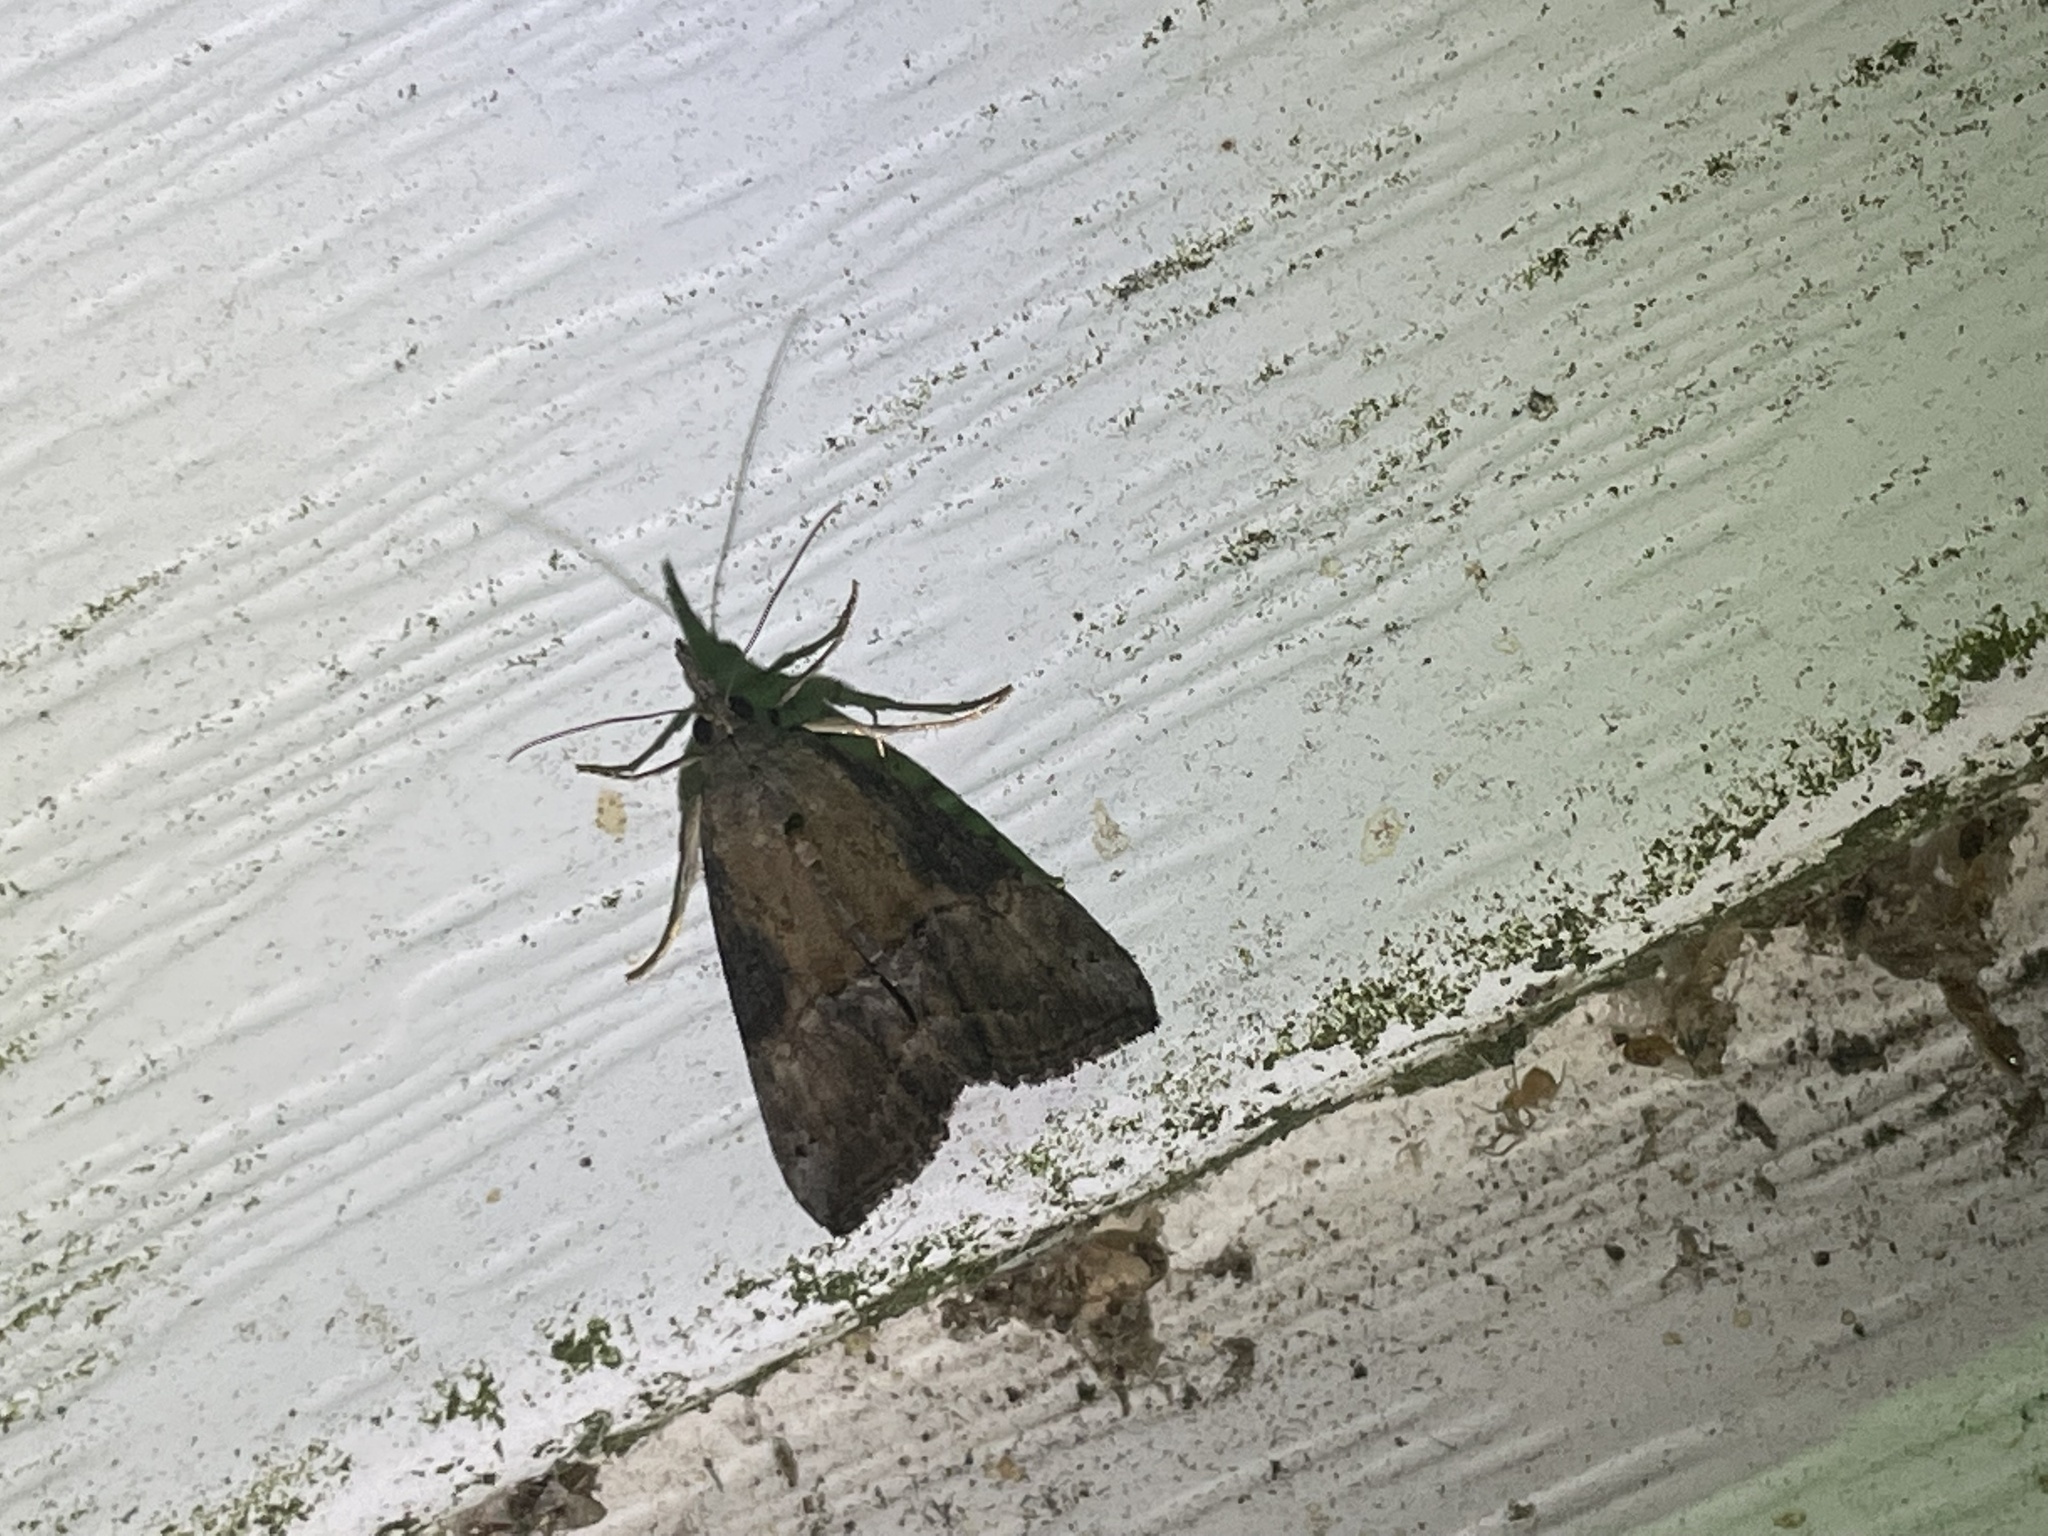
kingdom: Animalia
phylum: Arthropoda
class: Insecta
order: Lepidoptera
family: Erebidae
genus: Hypena
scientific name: Hypena scabra
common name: Green cloverworm
